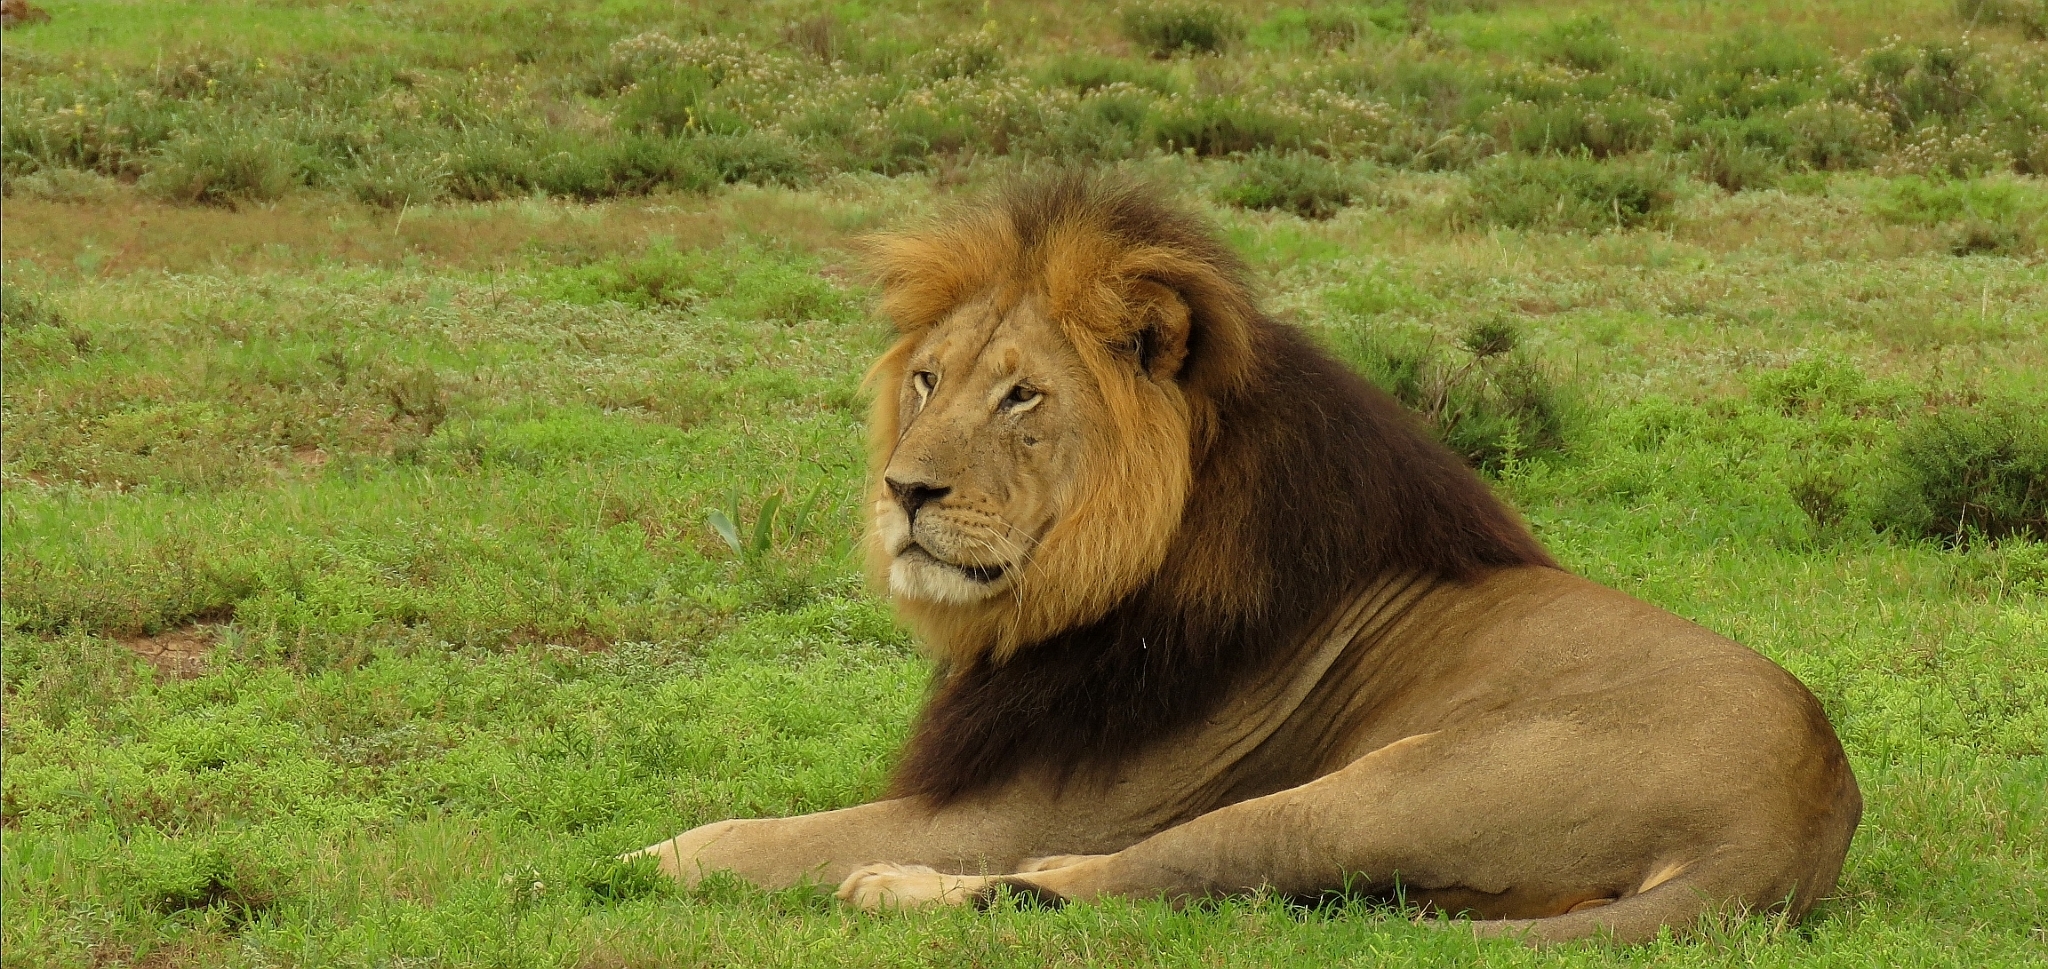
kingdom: Animalia
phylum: Chordata
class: Mammalia
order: Carnivora
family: Felidae
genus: Panthera
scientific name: Panthera leo
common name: Lion
